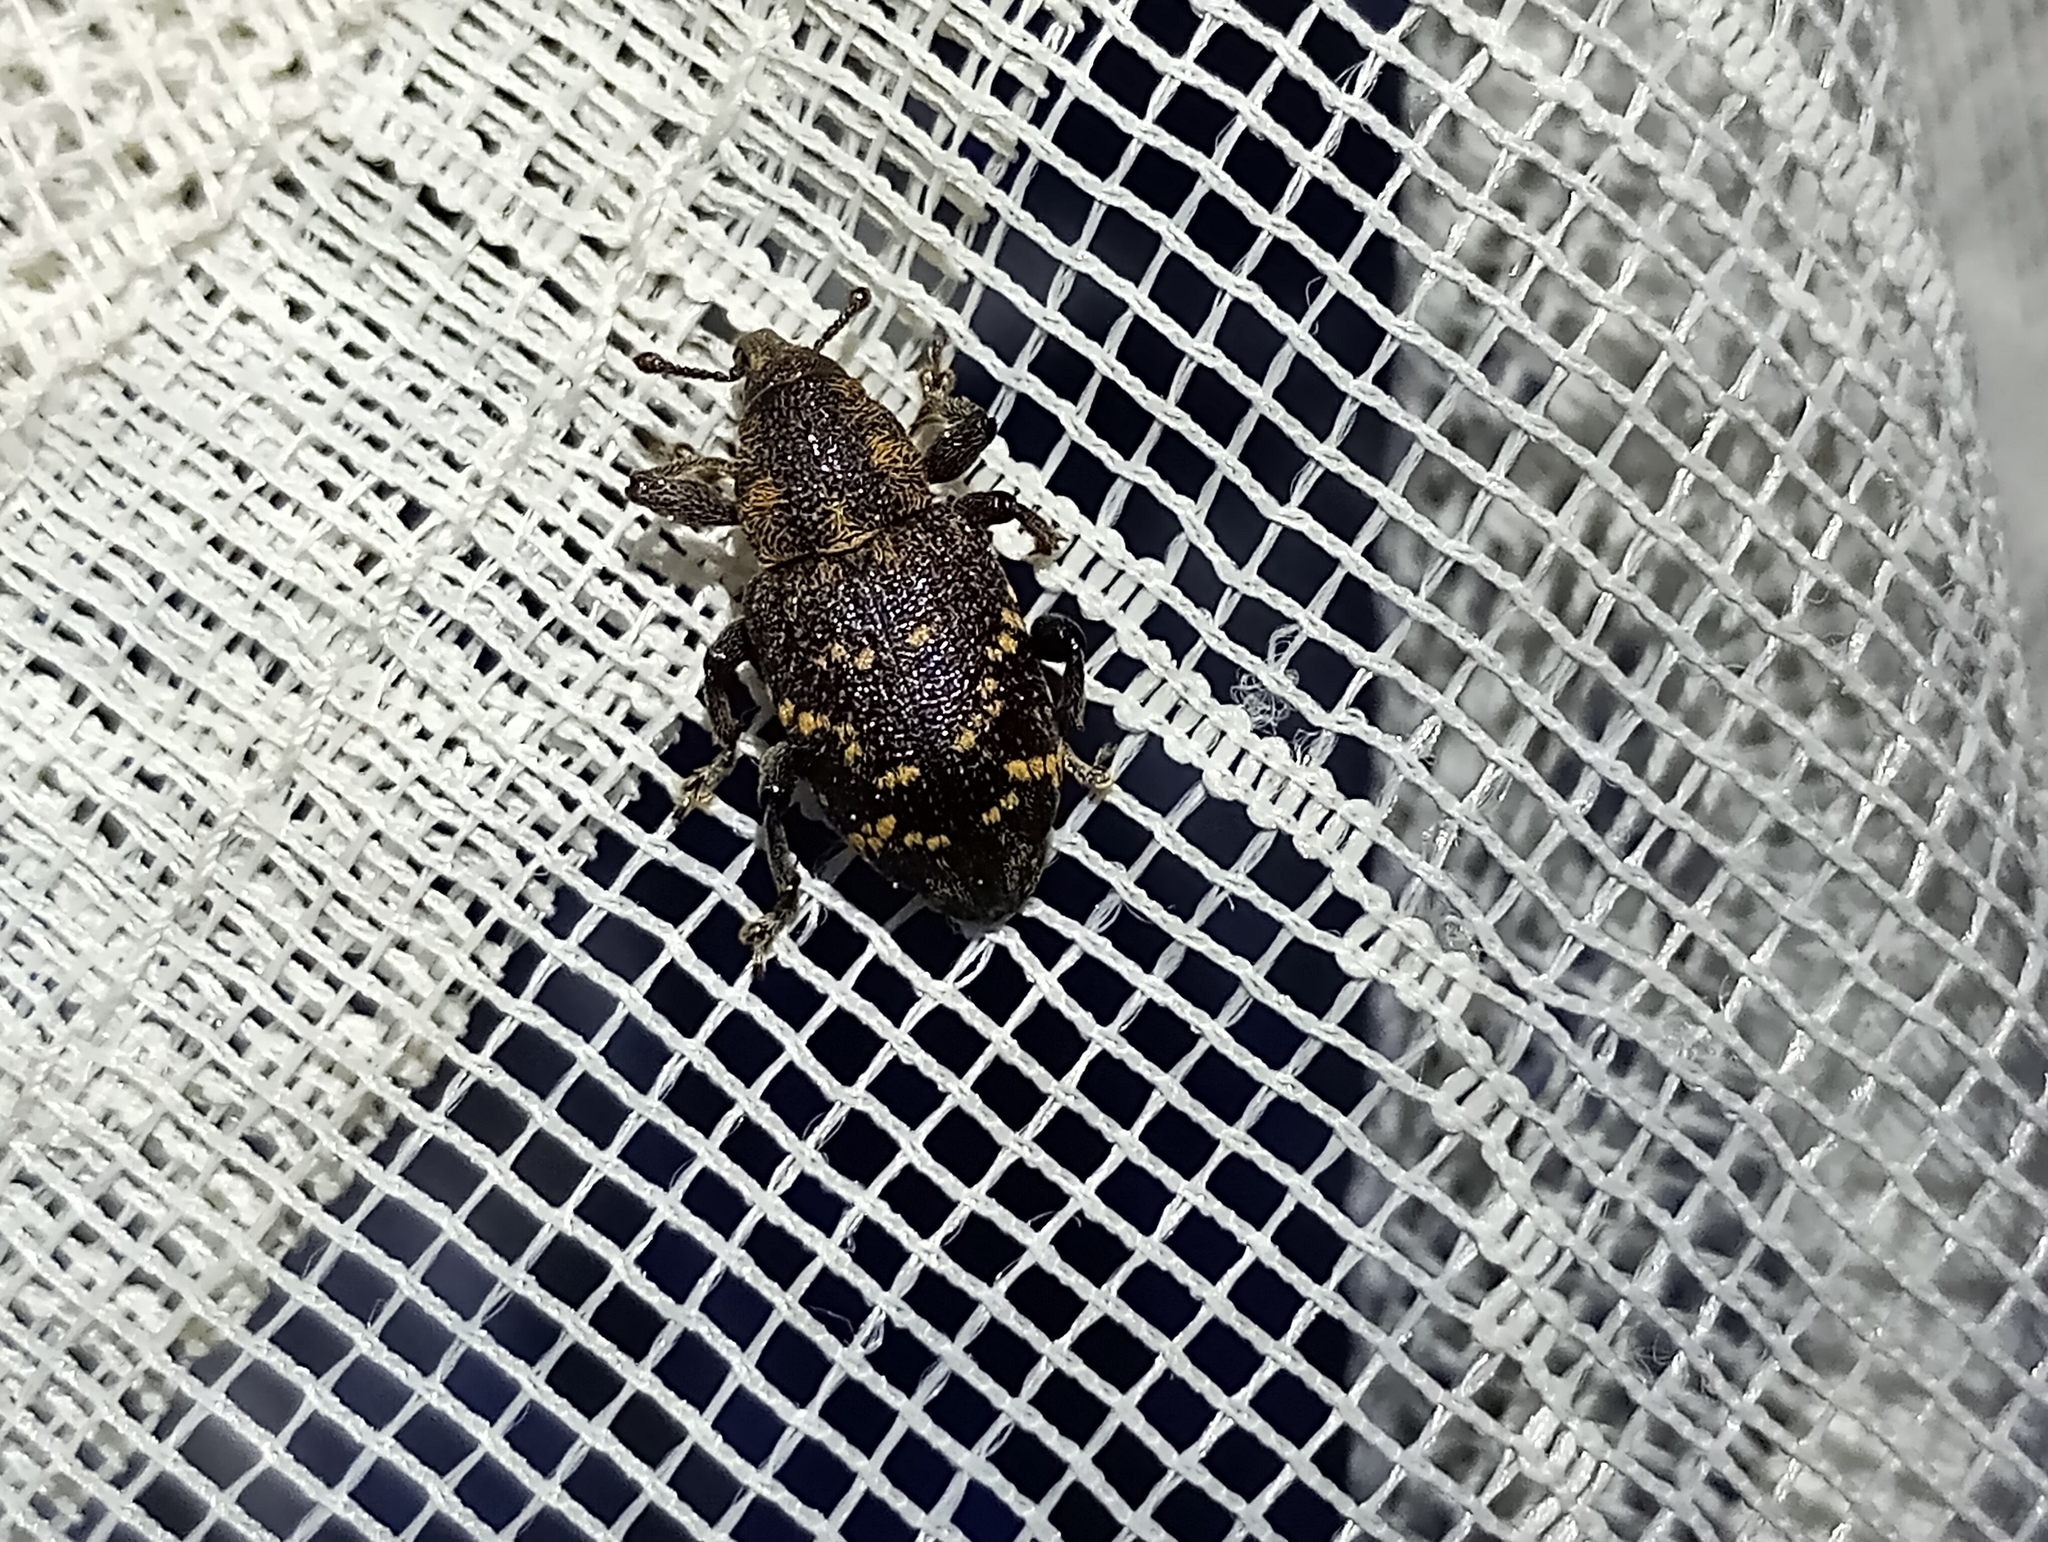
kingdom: Animalia
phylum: Arthropoda
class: Insecta
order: Coleoptera
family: Curculionidae
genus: Hylobius
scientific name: Hylobius abietis
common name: Large pine weevil
